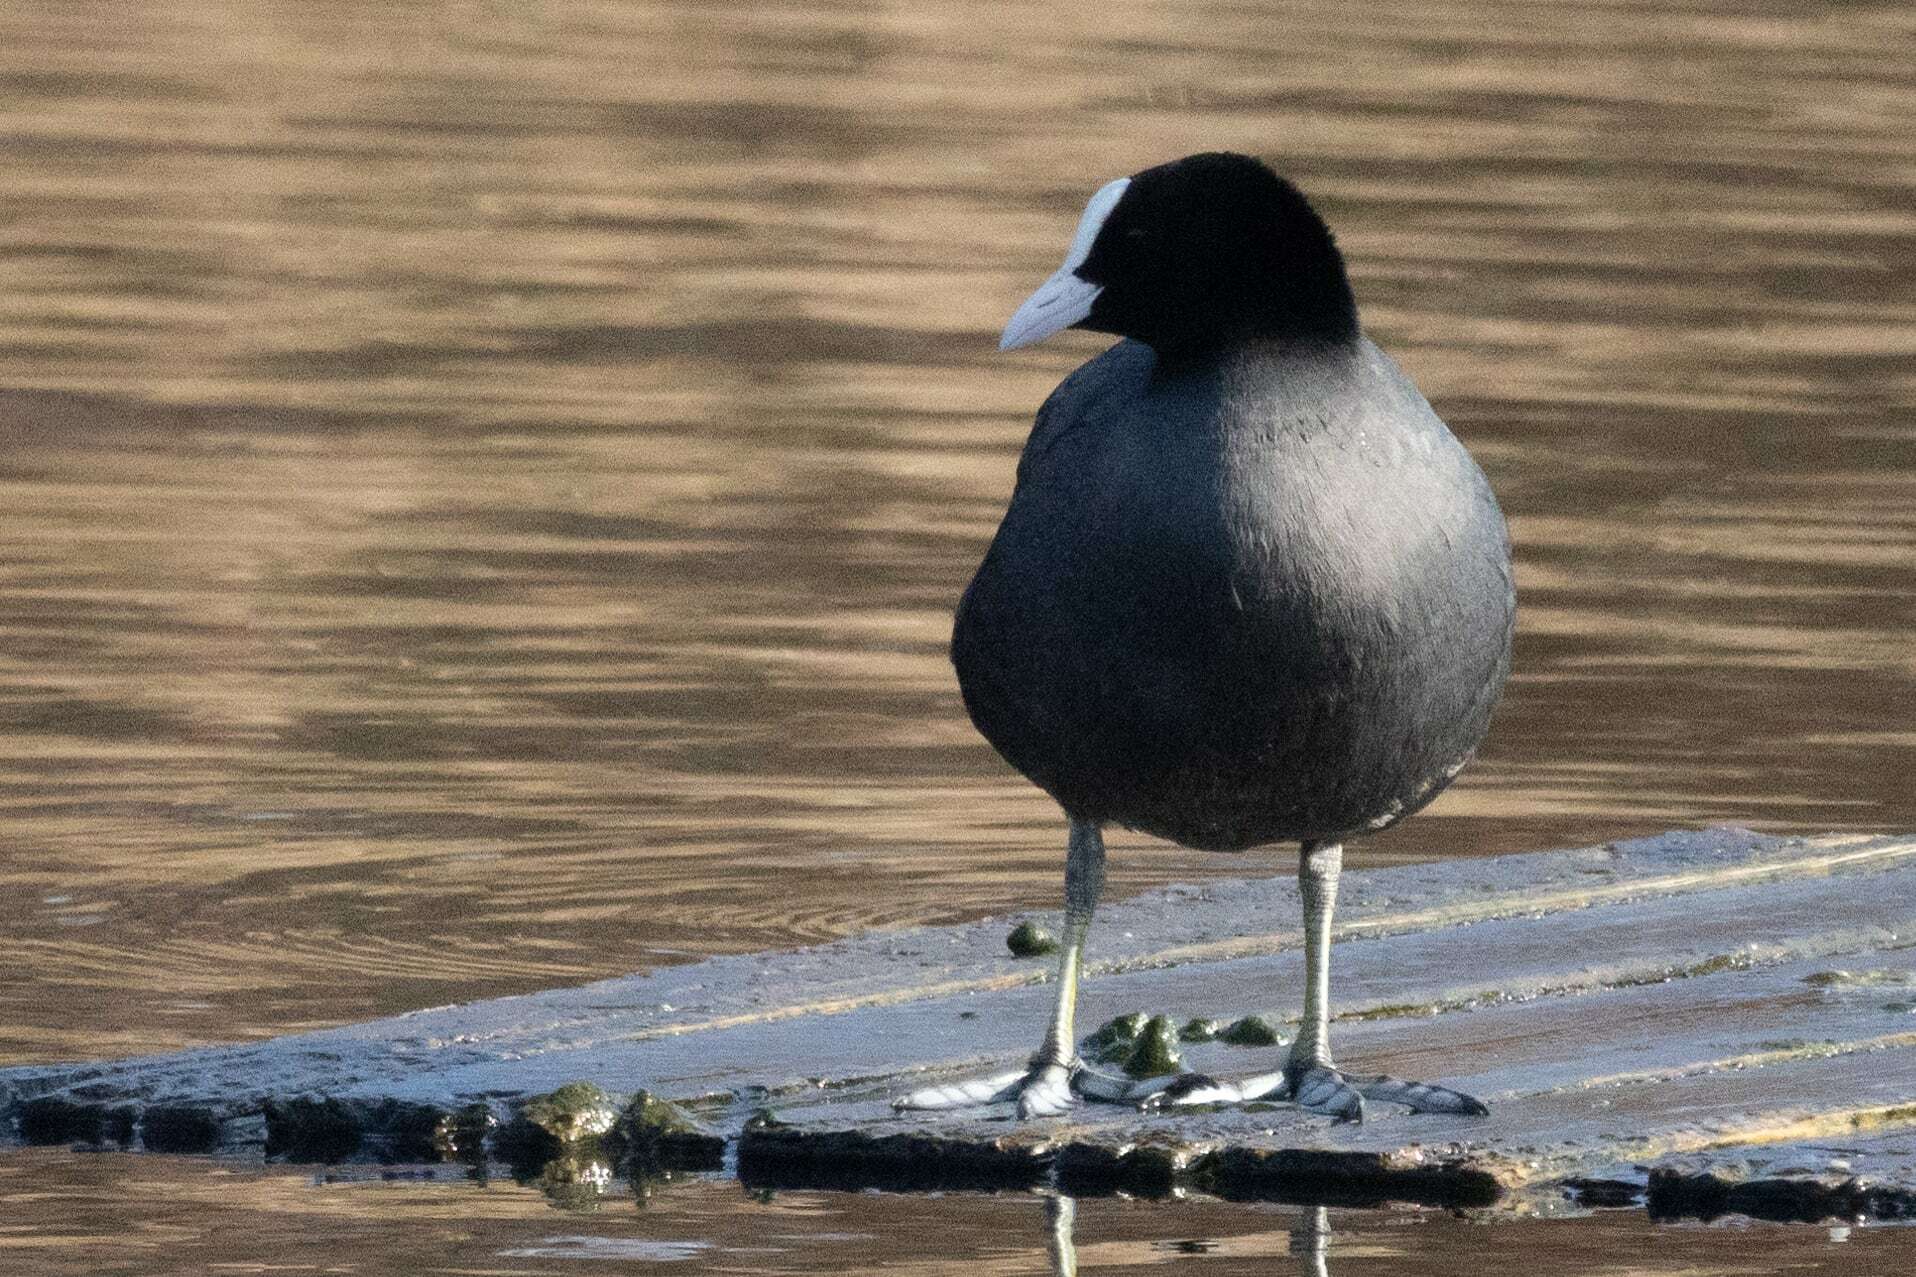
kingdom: Animalia
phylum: Chordata
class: Aves
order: Gruiformes
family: Rallidae
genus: Fulica
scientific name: Fulica atra
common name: Eurasian coot
